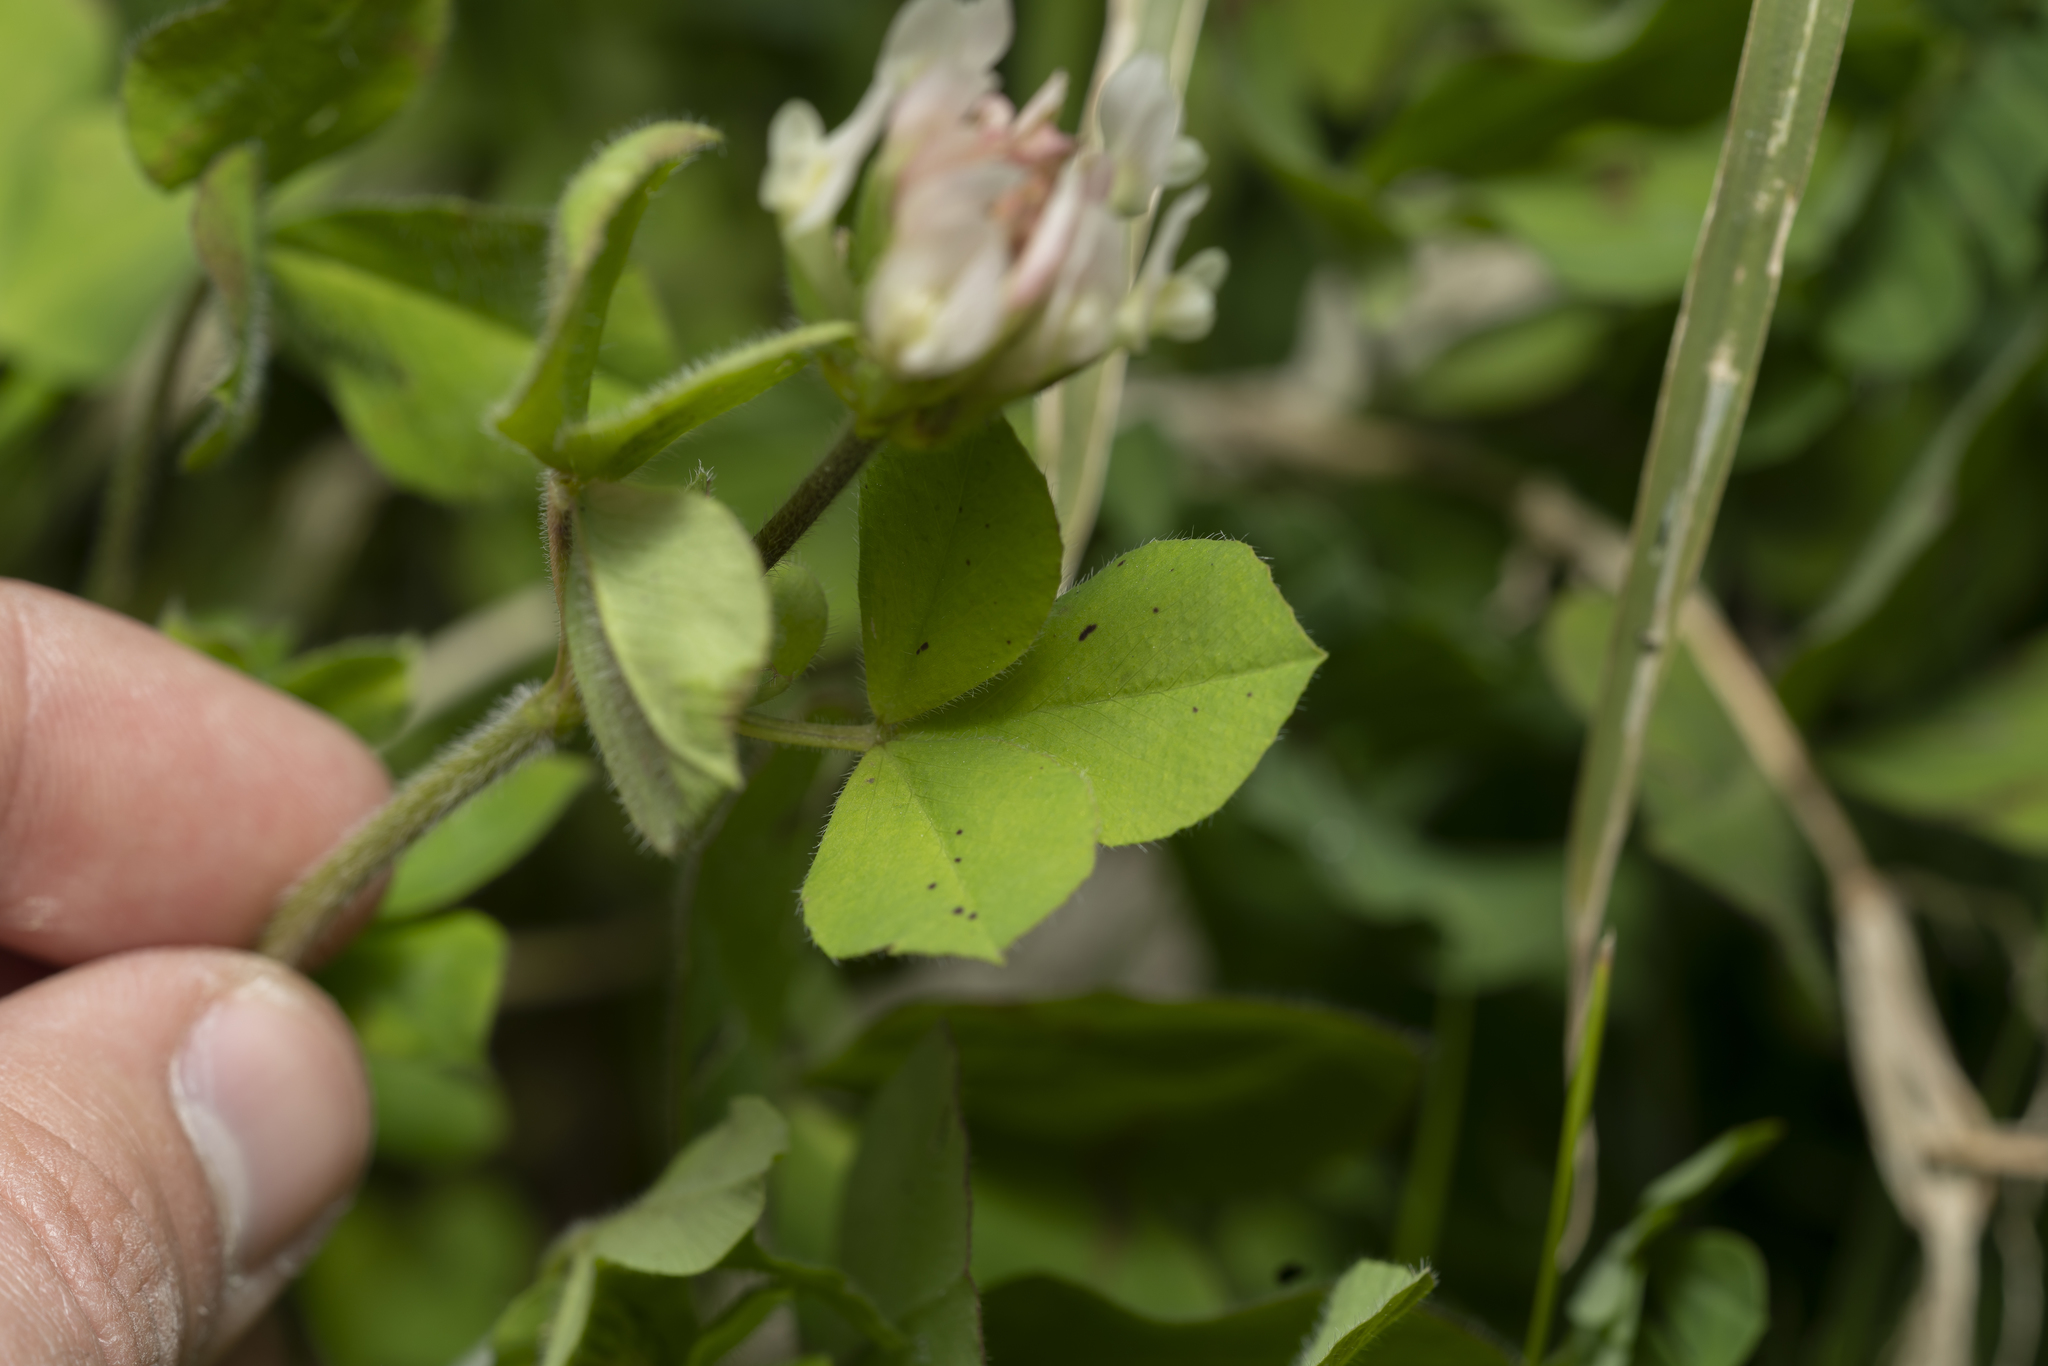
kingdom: Plantae
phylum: Tracheophyta
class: Magnoliopsida
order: Fabales
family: Fabaceae
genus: Trifolium
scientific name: Trifolium clypeatum
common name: Shield clover
